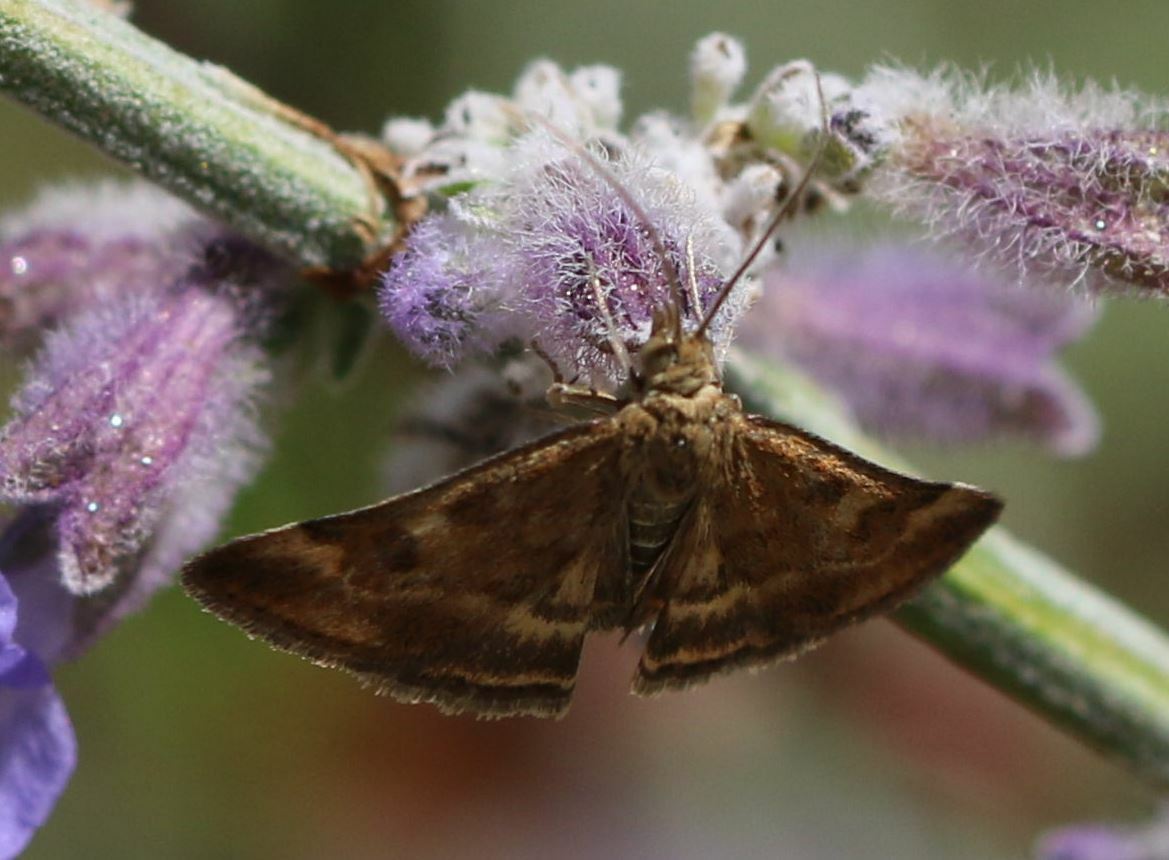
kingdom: Animalia
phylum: Arthropoda
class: Insecta
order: Lepidoptera
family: Crambidae
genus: Pyrausta
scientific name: Pyrausta despicata
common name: Straw-barred pearl
